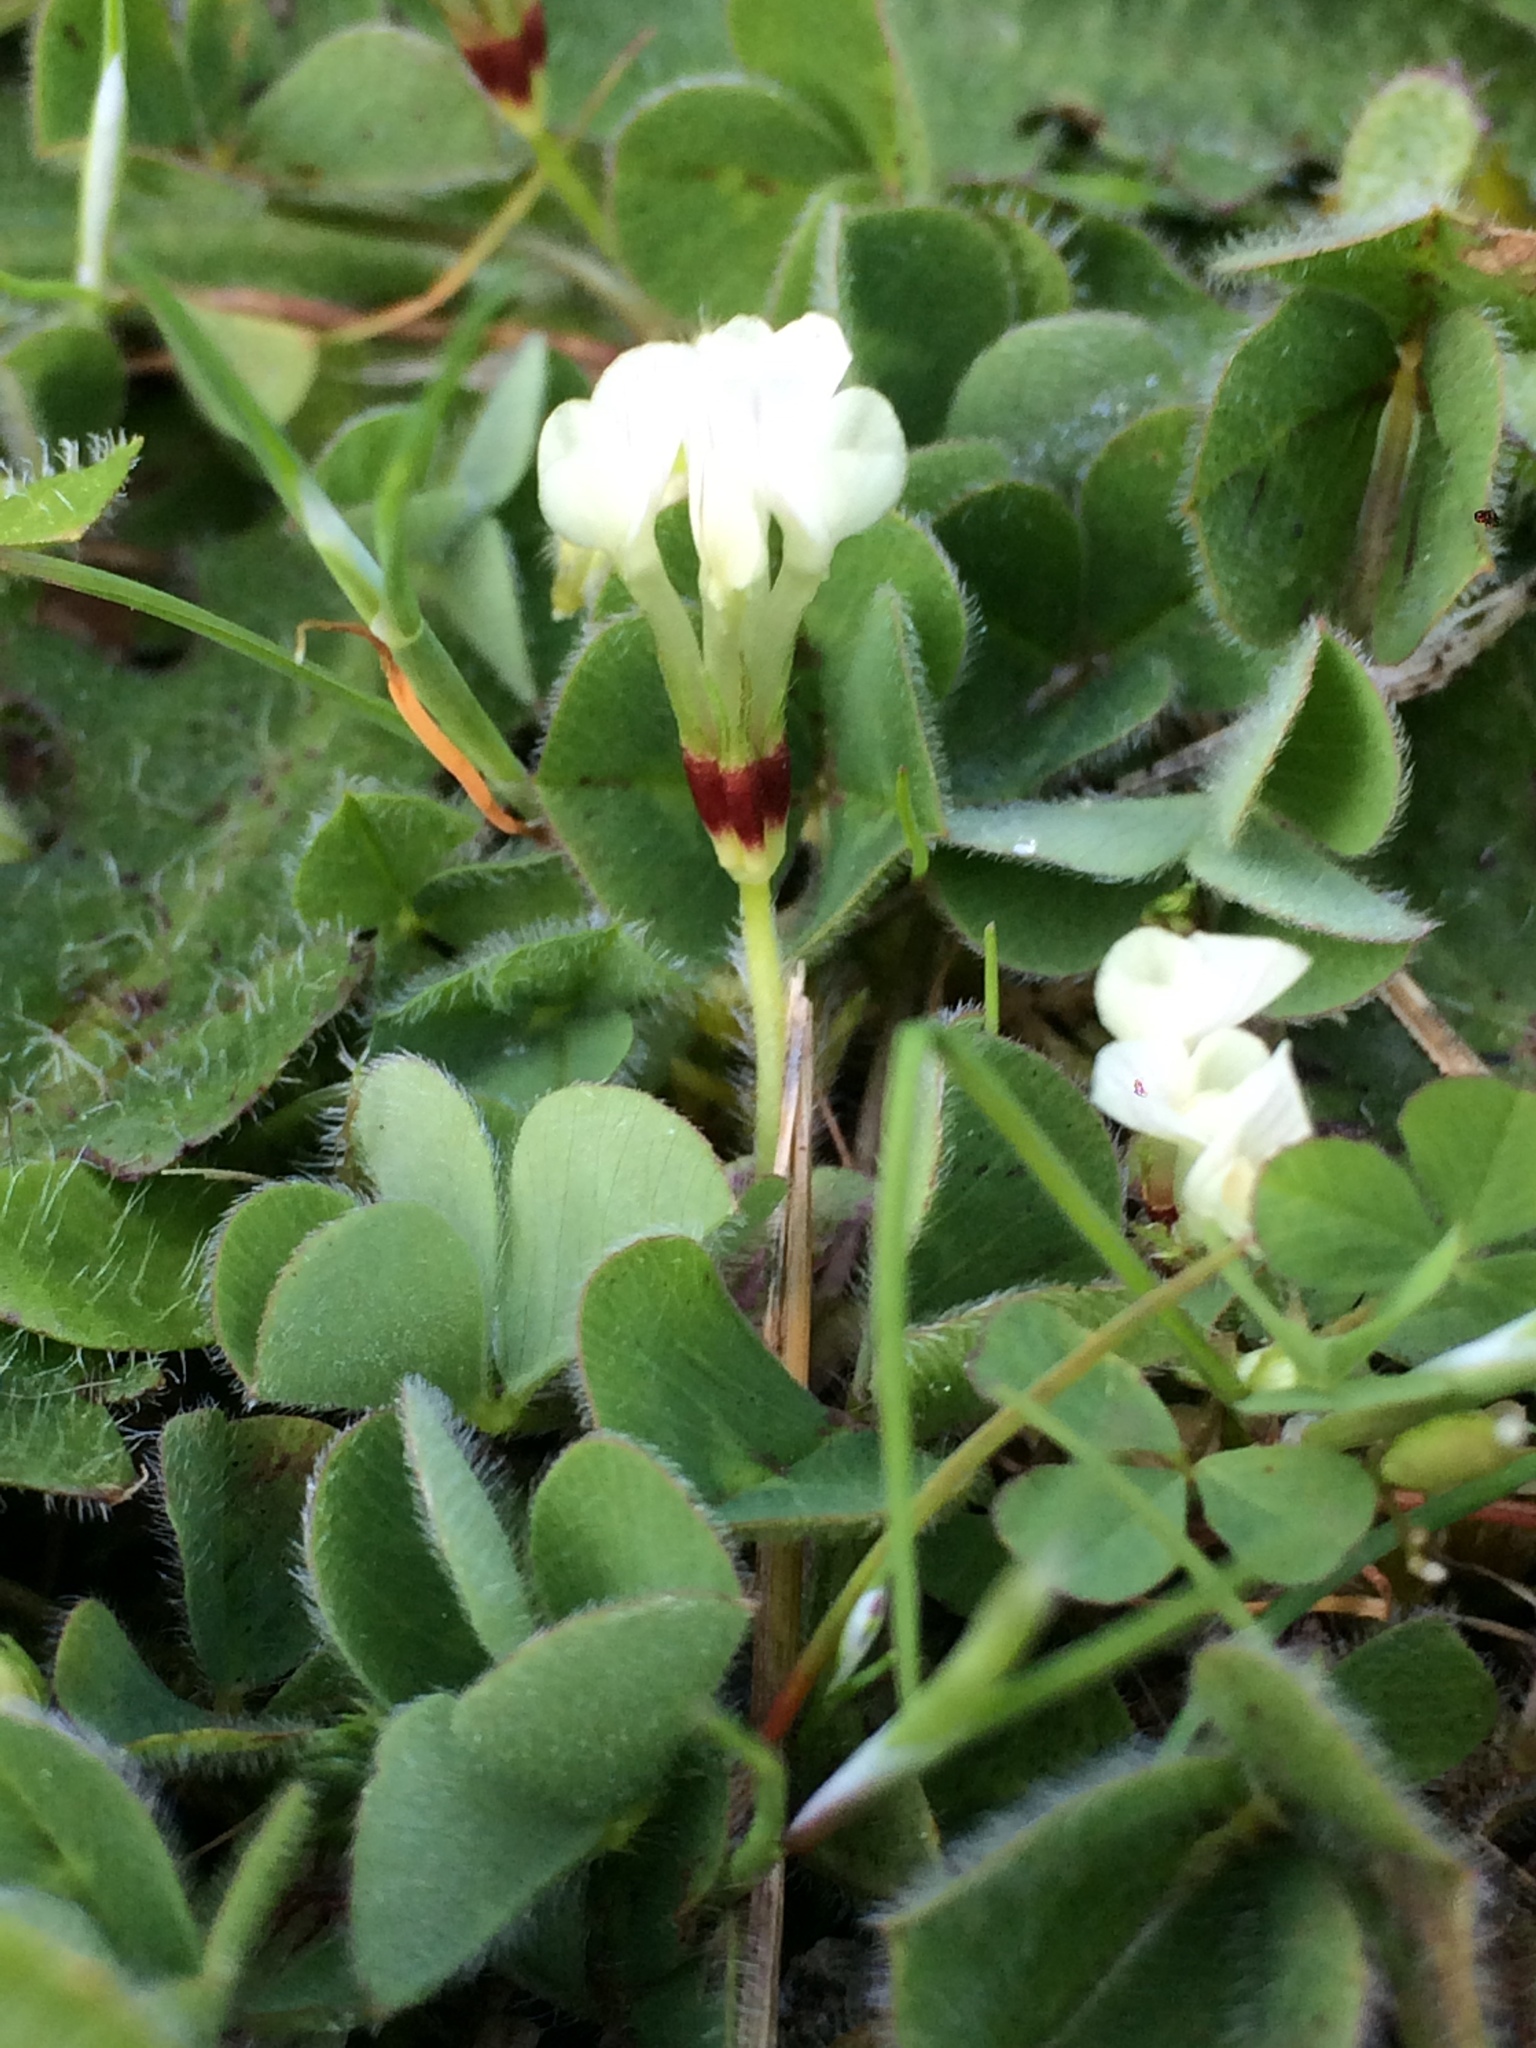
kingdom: Plantae
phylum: Tracheophyta
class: Magnoliopsida
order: Fabales
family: Fabaceae
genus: Trifolium
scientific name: Trifolium subterraneum
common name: Subterranean clover
